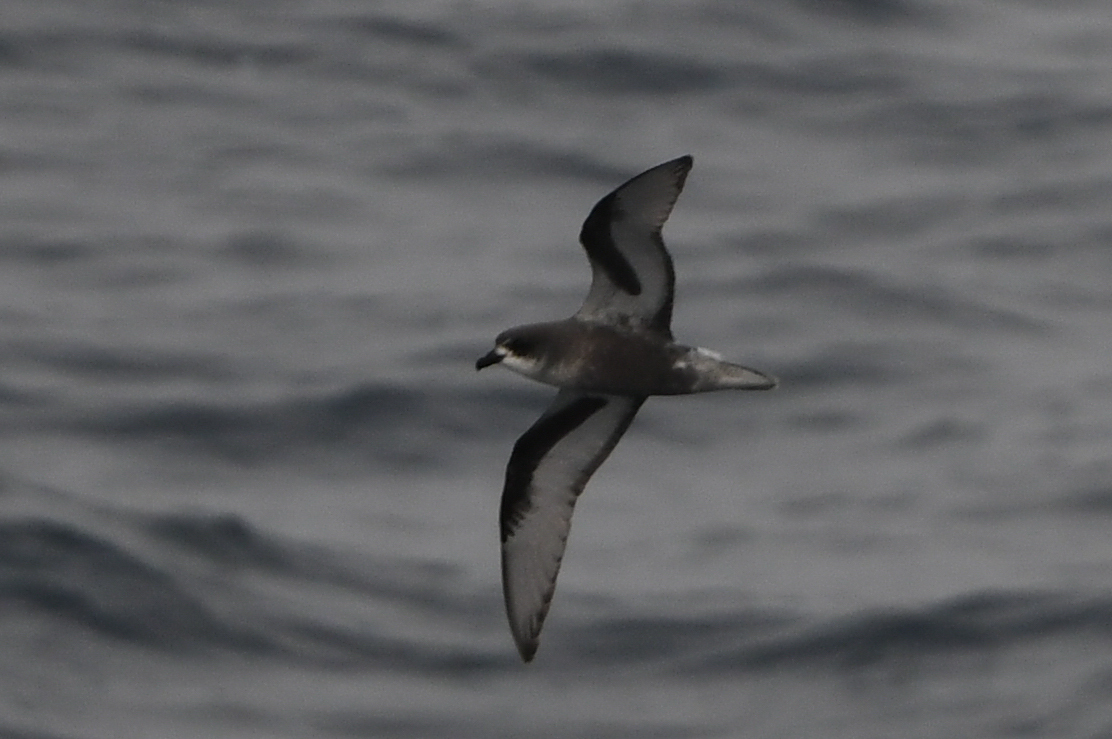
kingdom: Animalia
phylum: Chordata
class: Aves
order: Procellariiformes
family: Procellariidae
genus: Pterodroma
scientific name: Pterodroma inexpectata
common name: Mottled petrel
